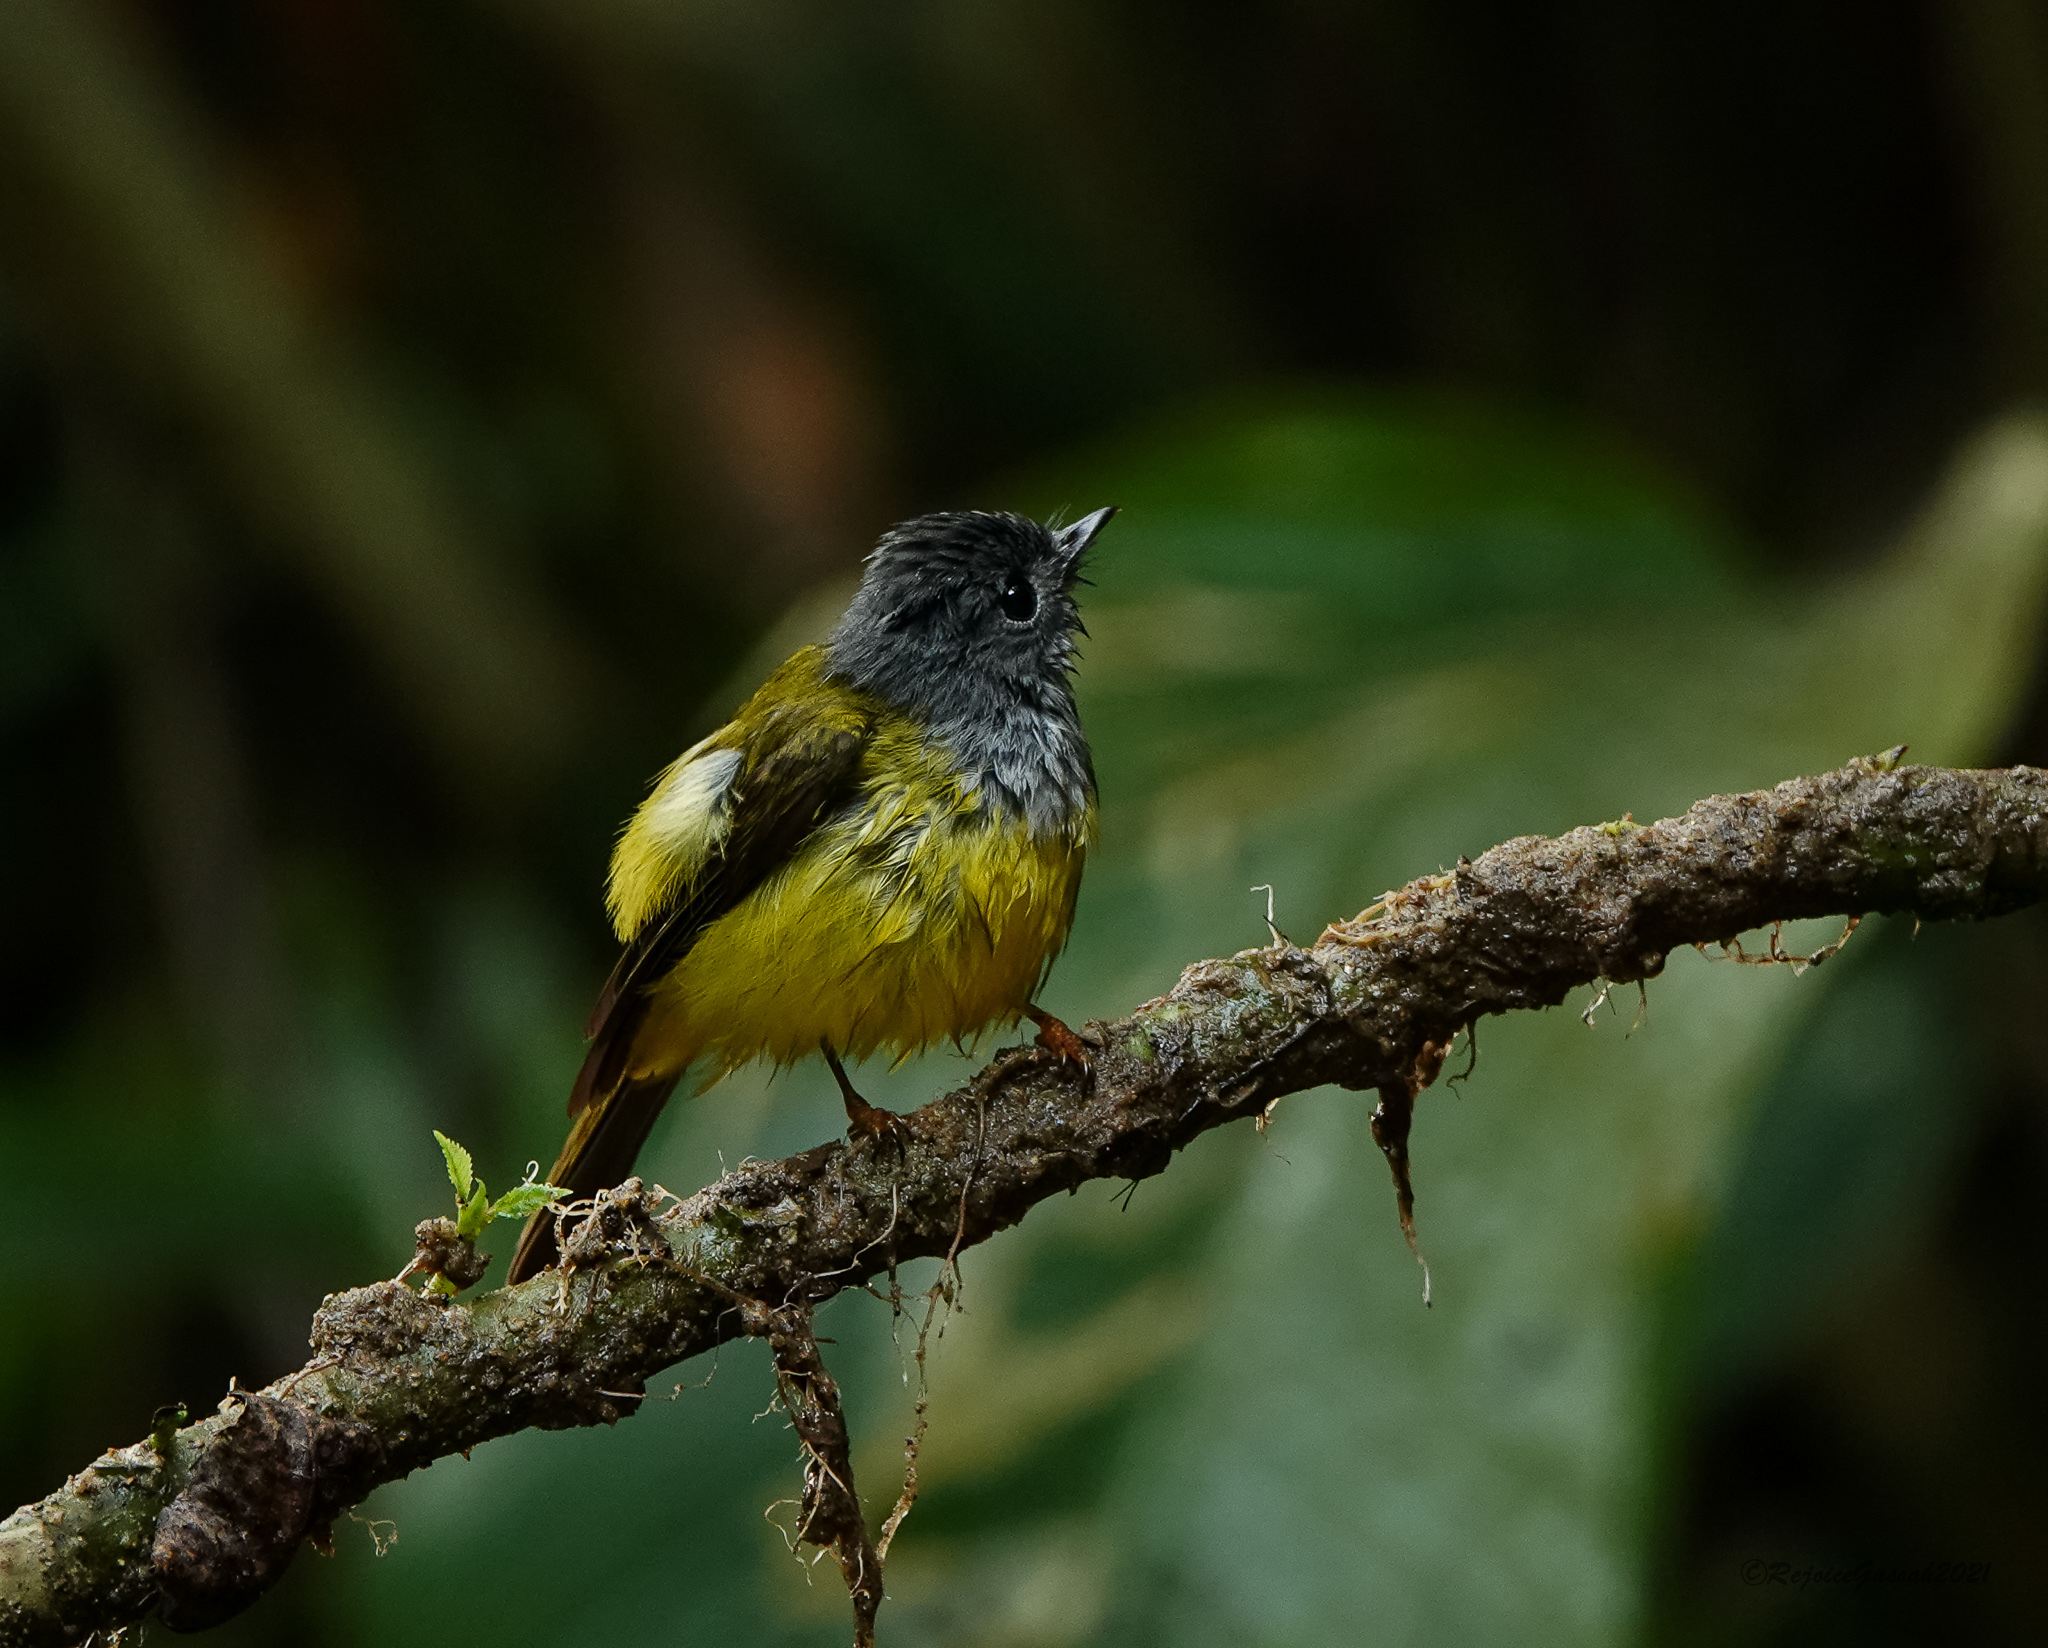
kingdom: Animalia
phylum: Chordata
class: Aves
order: Passeriformes
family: Stenostiridae
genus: Culicicapa
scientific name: Culicicapa ceylonensis
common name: Grey-headed canary-flycatcher
